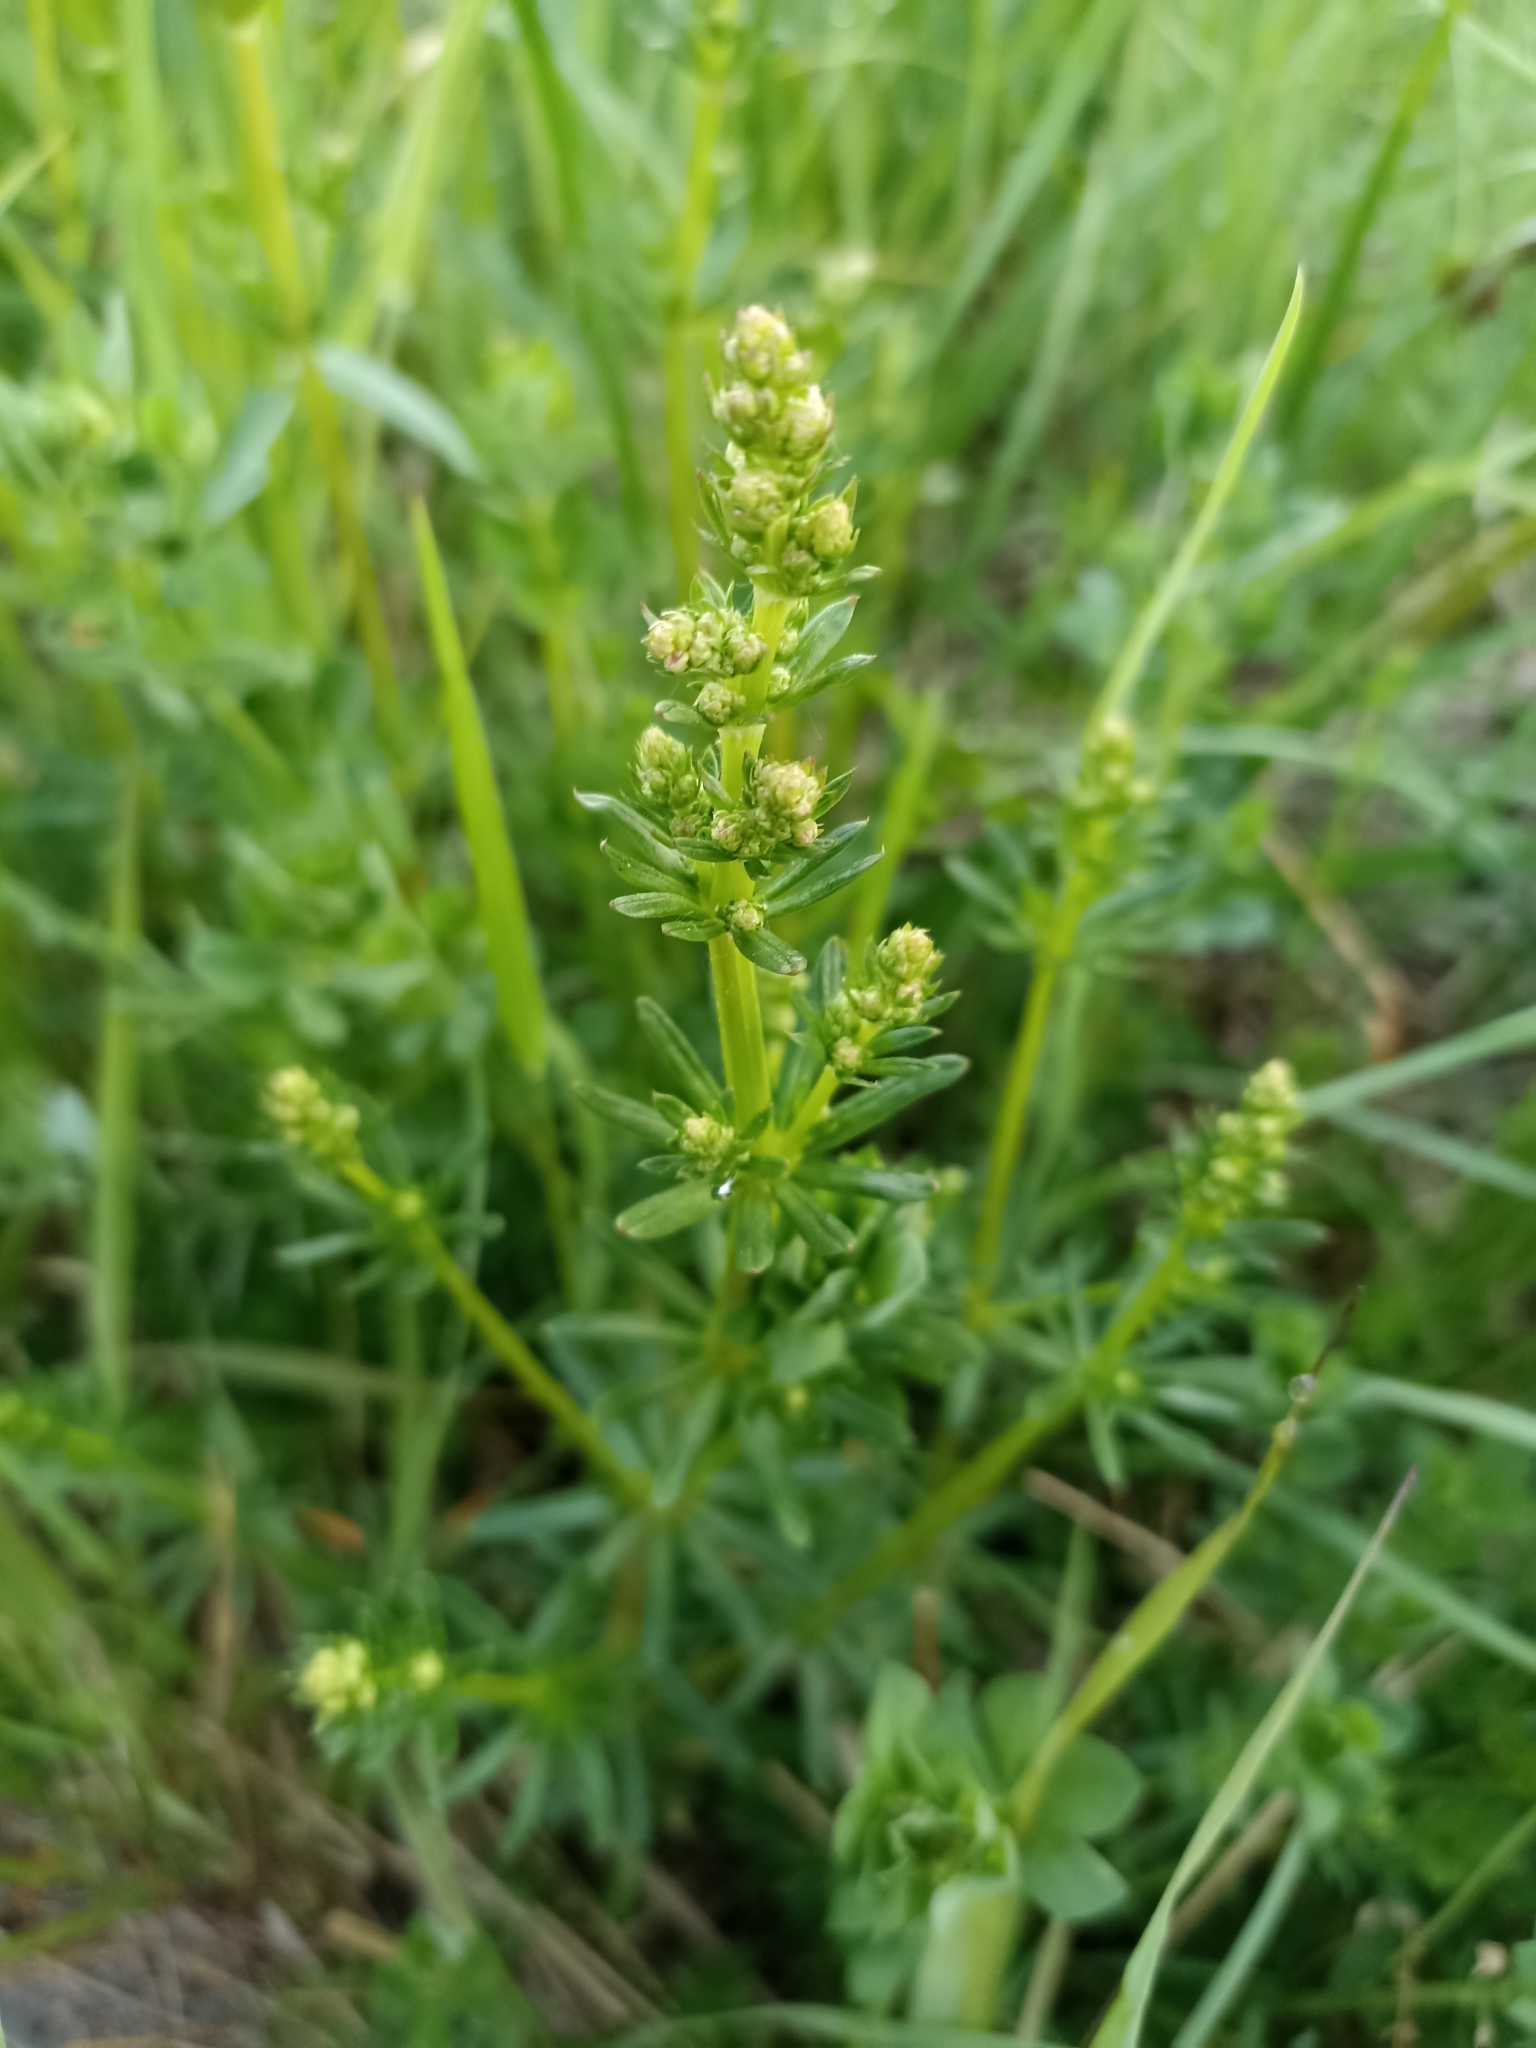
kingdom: Plantae
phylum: Tracheophyta
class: Magnoliopsida
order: Gentianales
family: Rubiaceae
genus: Galium
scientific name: Galium mollugo
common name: Hedge bedstraw
